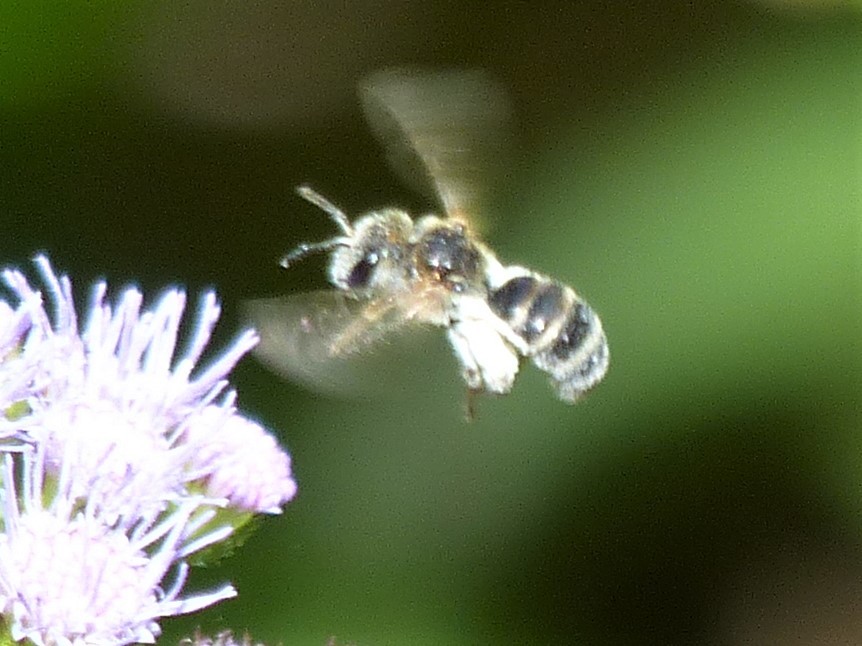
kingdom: Animalia
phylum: Arthropoda
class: Insecta
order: Hymenoptera
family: Halictidae
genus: Halictus
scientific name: Halictus ligatus
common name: Ligated furrow bee
